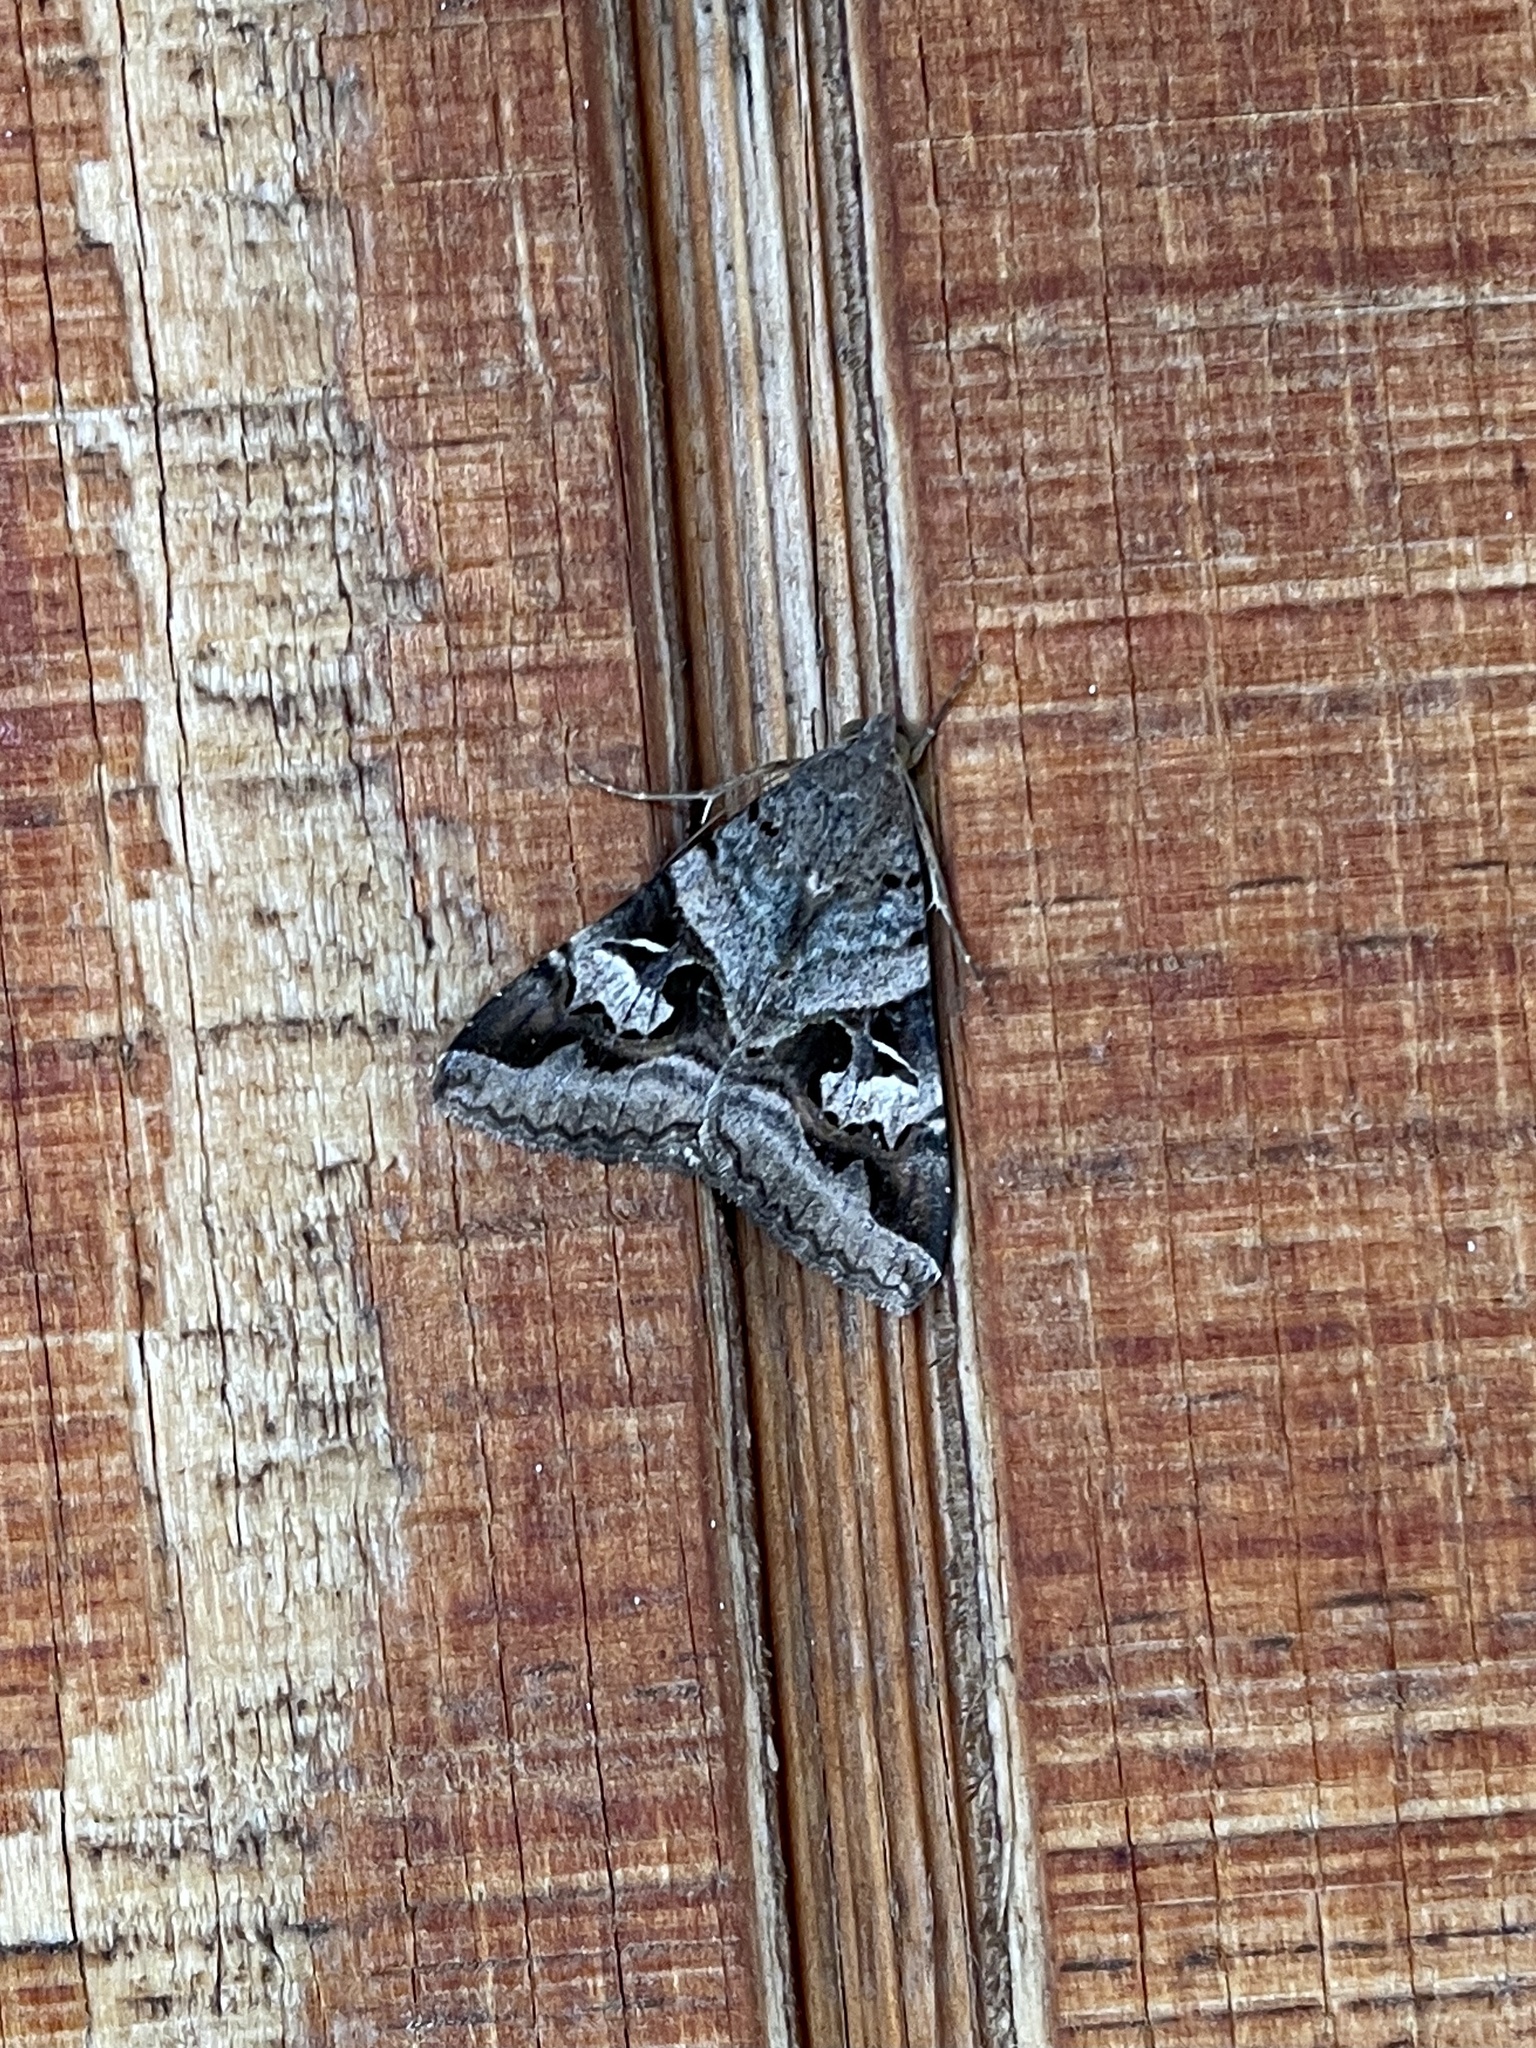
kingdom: Animalia
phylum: Arthropoda
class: Insecta
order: Lepidoptera
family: Erebidae
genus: Melipotis
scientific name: Melipotis indomita
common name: Moth
